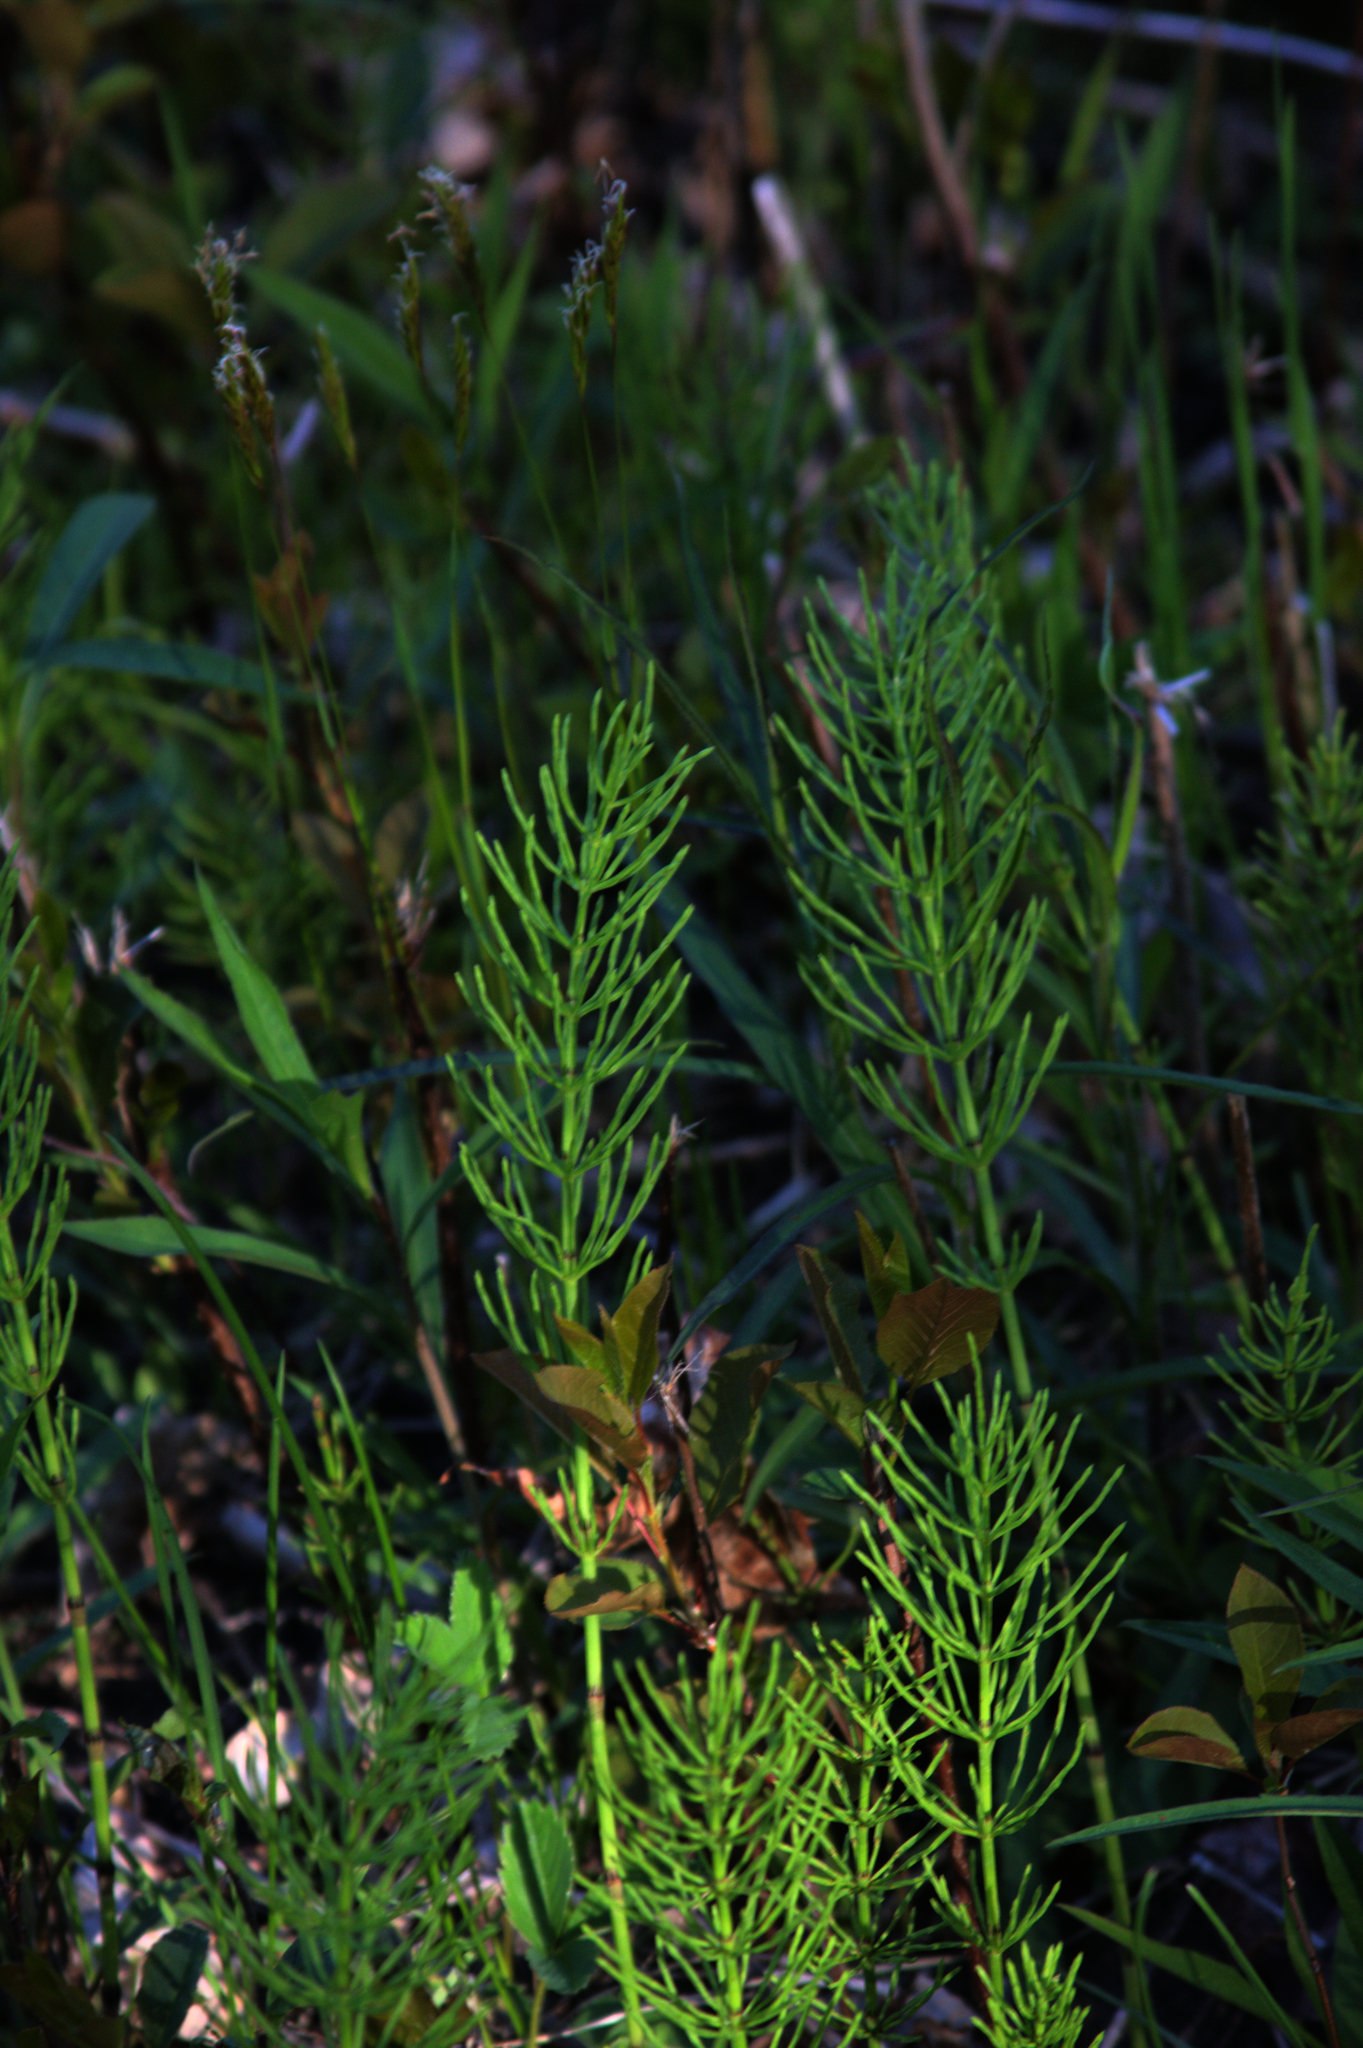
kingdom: Plantae
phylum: Tracheophyta
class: Polypodiopsida
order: Equisetales
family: Equisetaceae
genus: Equisetum
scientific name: Equisetum arvense
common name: Field horsetail
